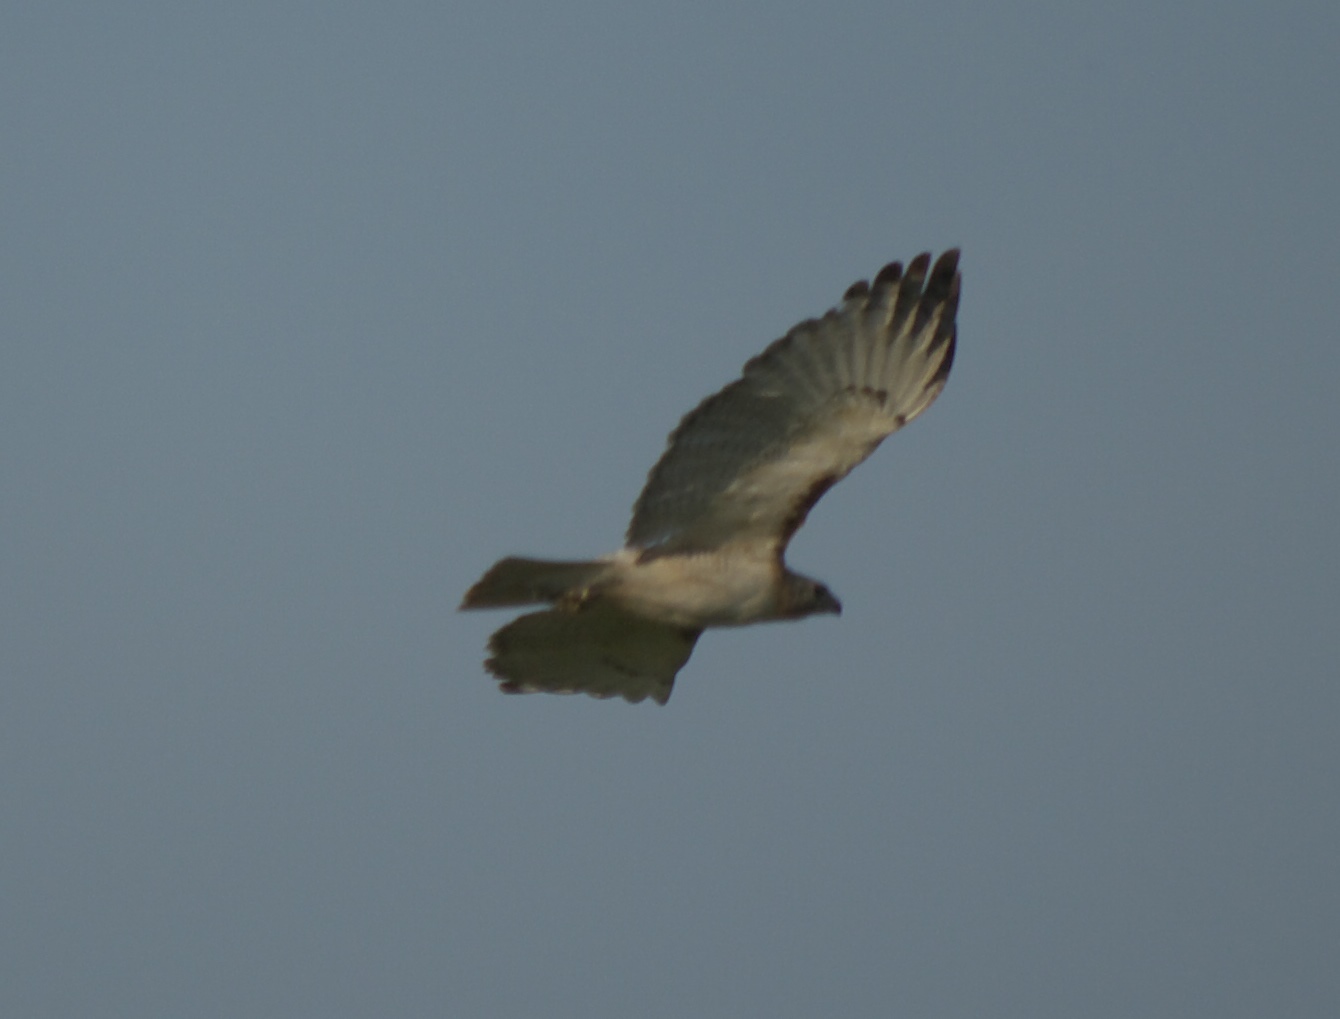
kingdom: Animalia
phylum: Chordata
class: Aves
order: Accipitriformes
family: Accipitridae
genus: Buteo
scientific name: Buteo jamaicensis
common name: Red-tailed hawk
